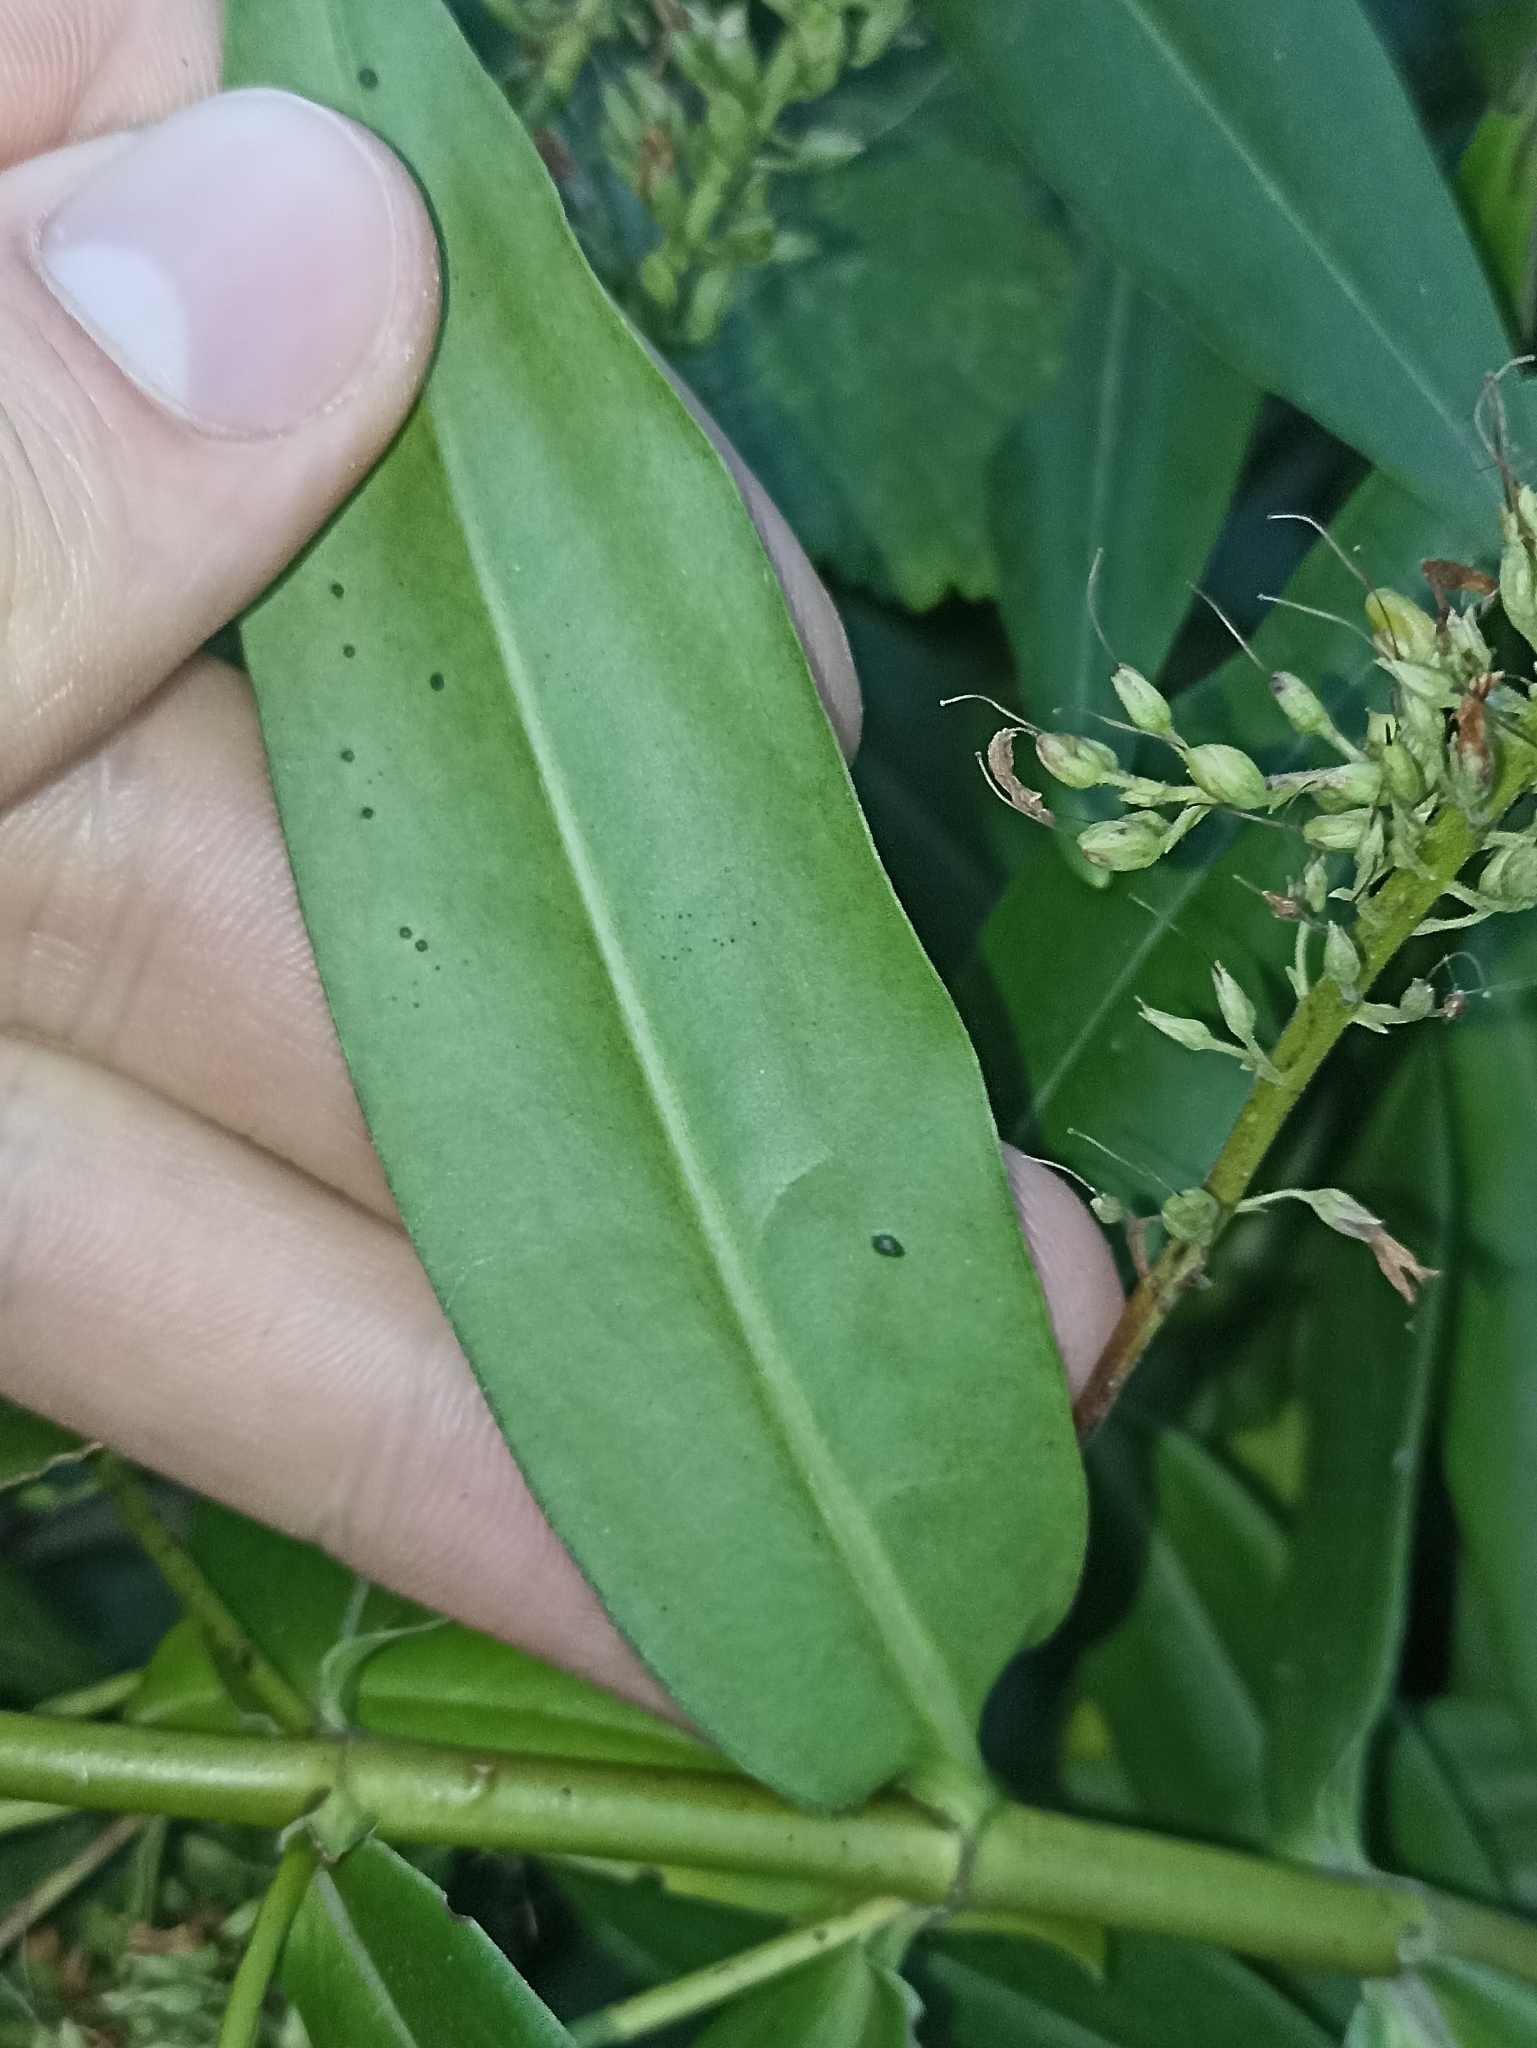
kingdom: Plantae
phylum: Tracheophyta
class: Magnoliopsida
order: Lamiales
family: Plantaginaceae
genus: Veronica
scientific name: Veronica salicifolia
